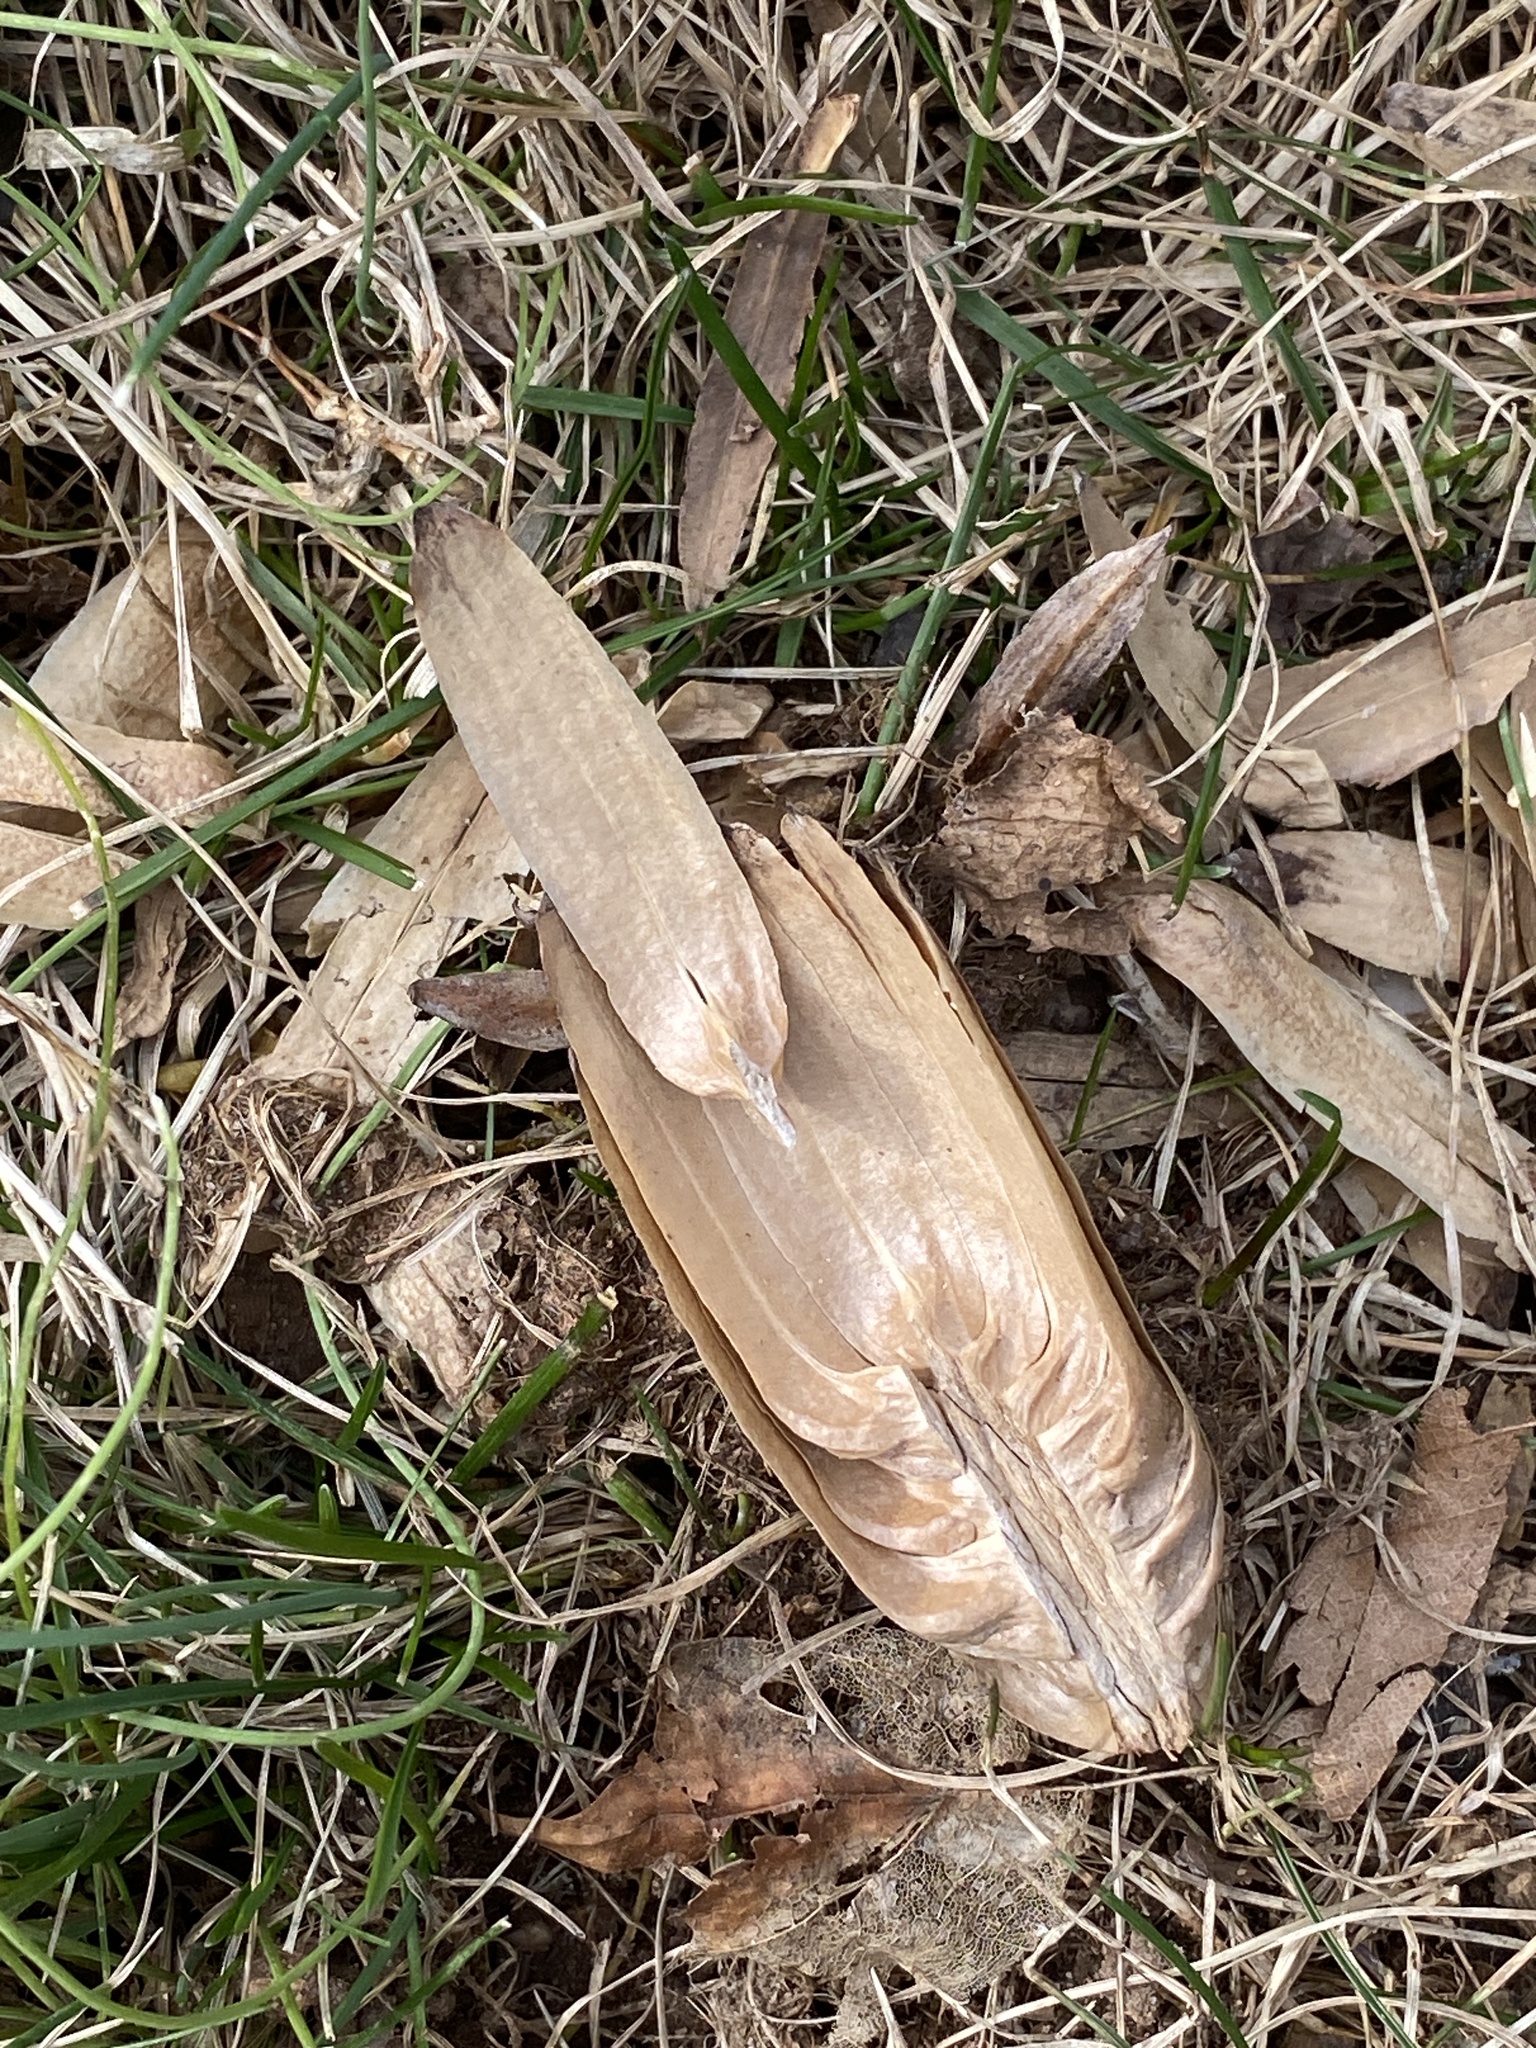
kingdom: Plantae
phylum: Tracheophyta
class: Magnoliopsida
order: Magnoliales
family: Magnoliaceae
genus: Liriodendron
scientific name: Liriodendron tulipifera
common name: Tulip tree
